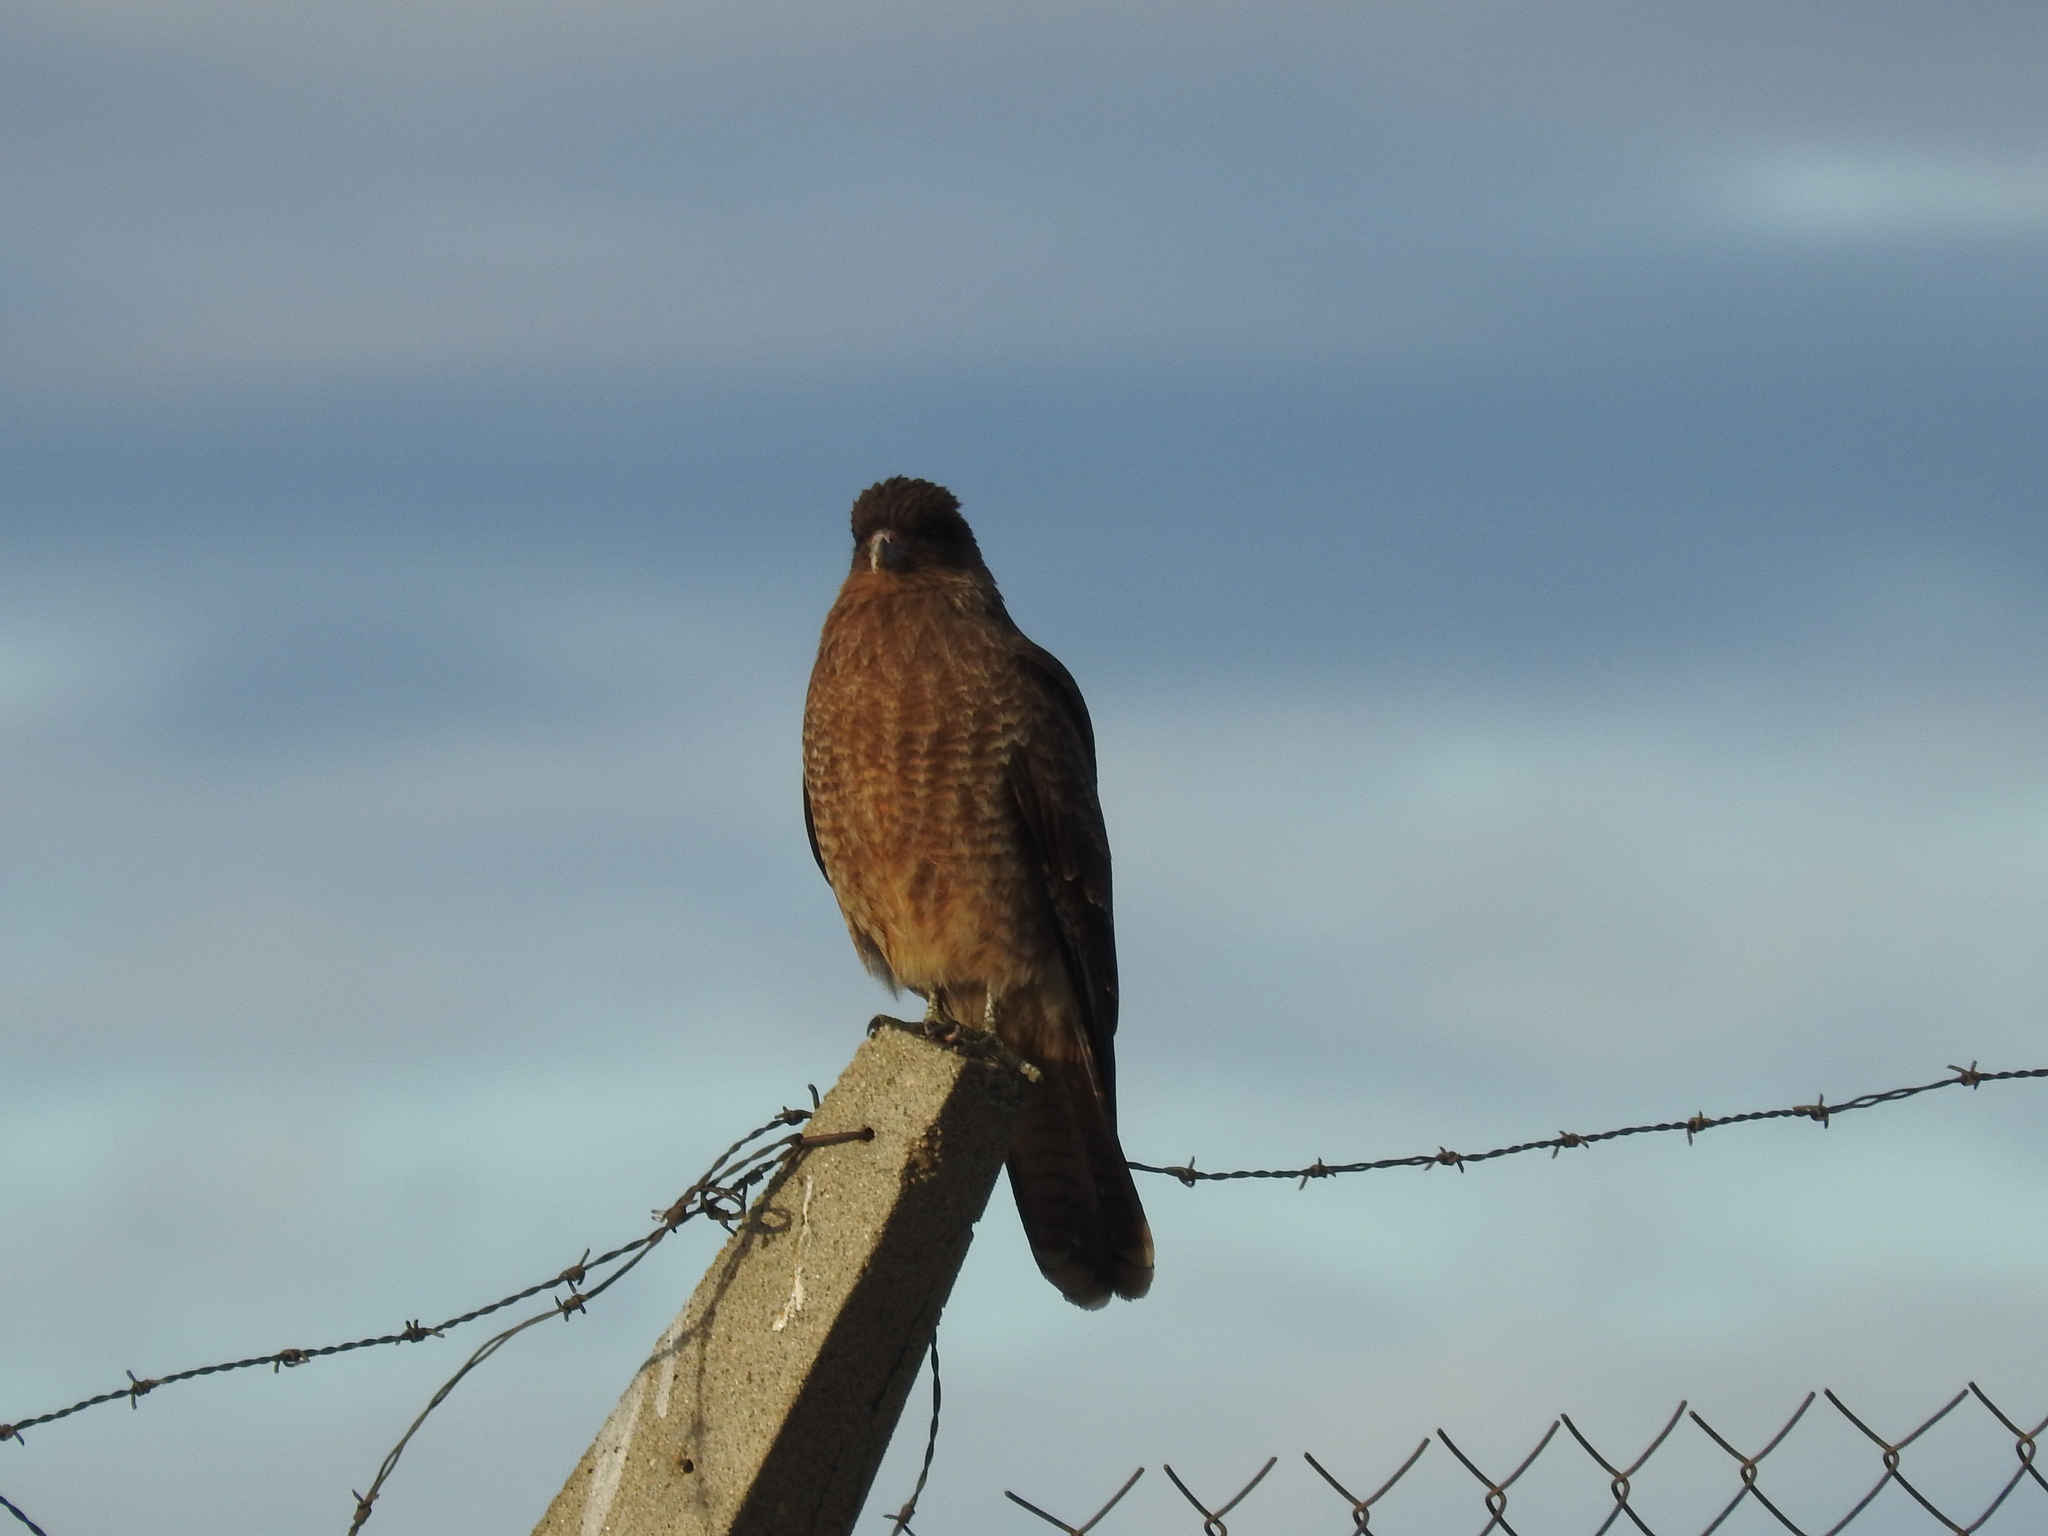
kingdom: Animalia
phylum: Chordata
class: Aves
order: Falconiformes
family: Falconidae
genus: Daptrius
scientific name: Daptrius
